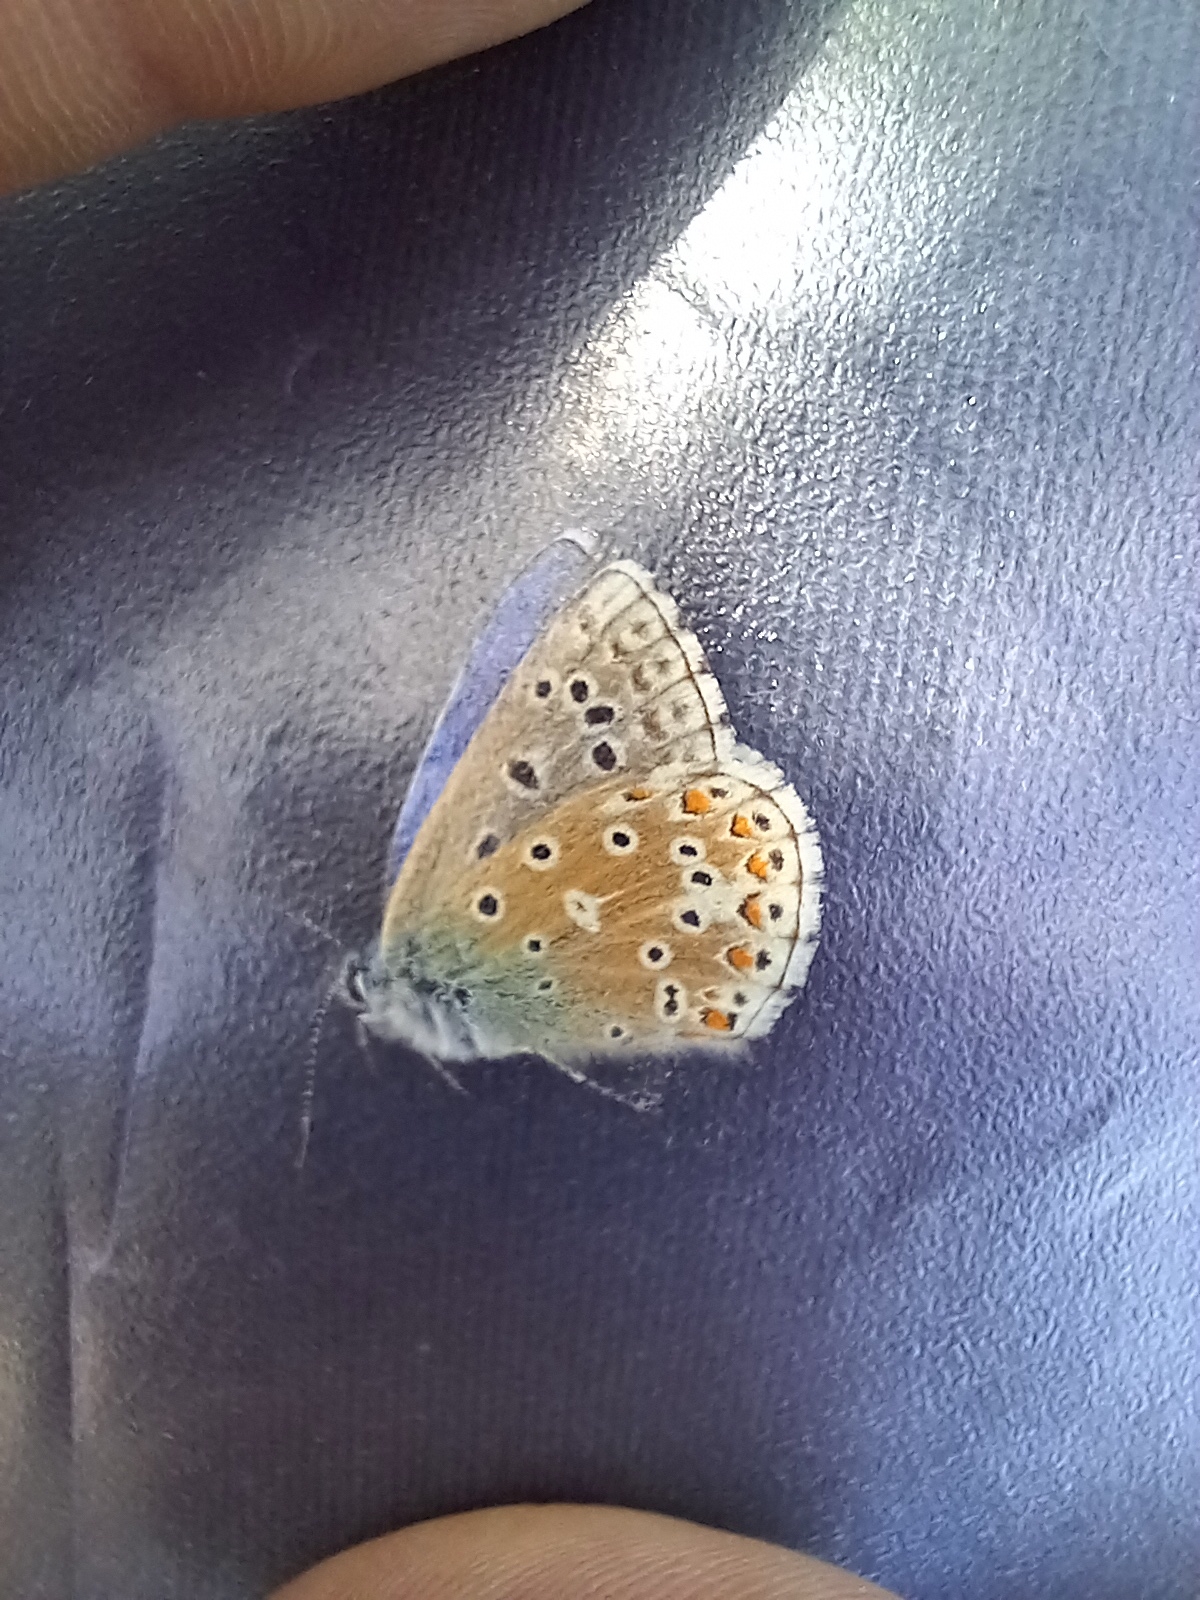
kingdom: Animalia
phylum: Arthropoda
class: Insecta
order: Lepidoptera
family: Lycaenidae
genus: Lysandra
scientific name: Lysandra bellargus
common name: Adonis blue
